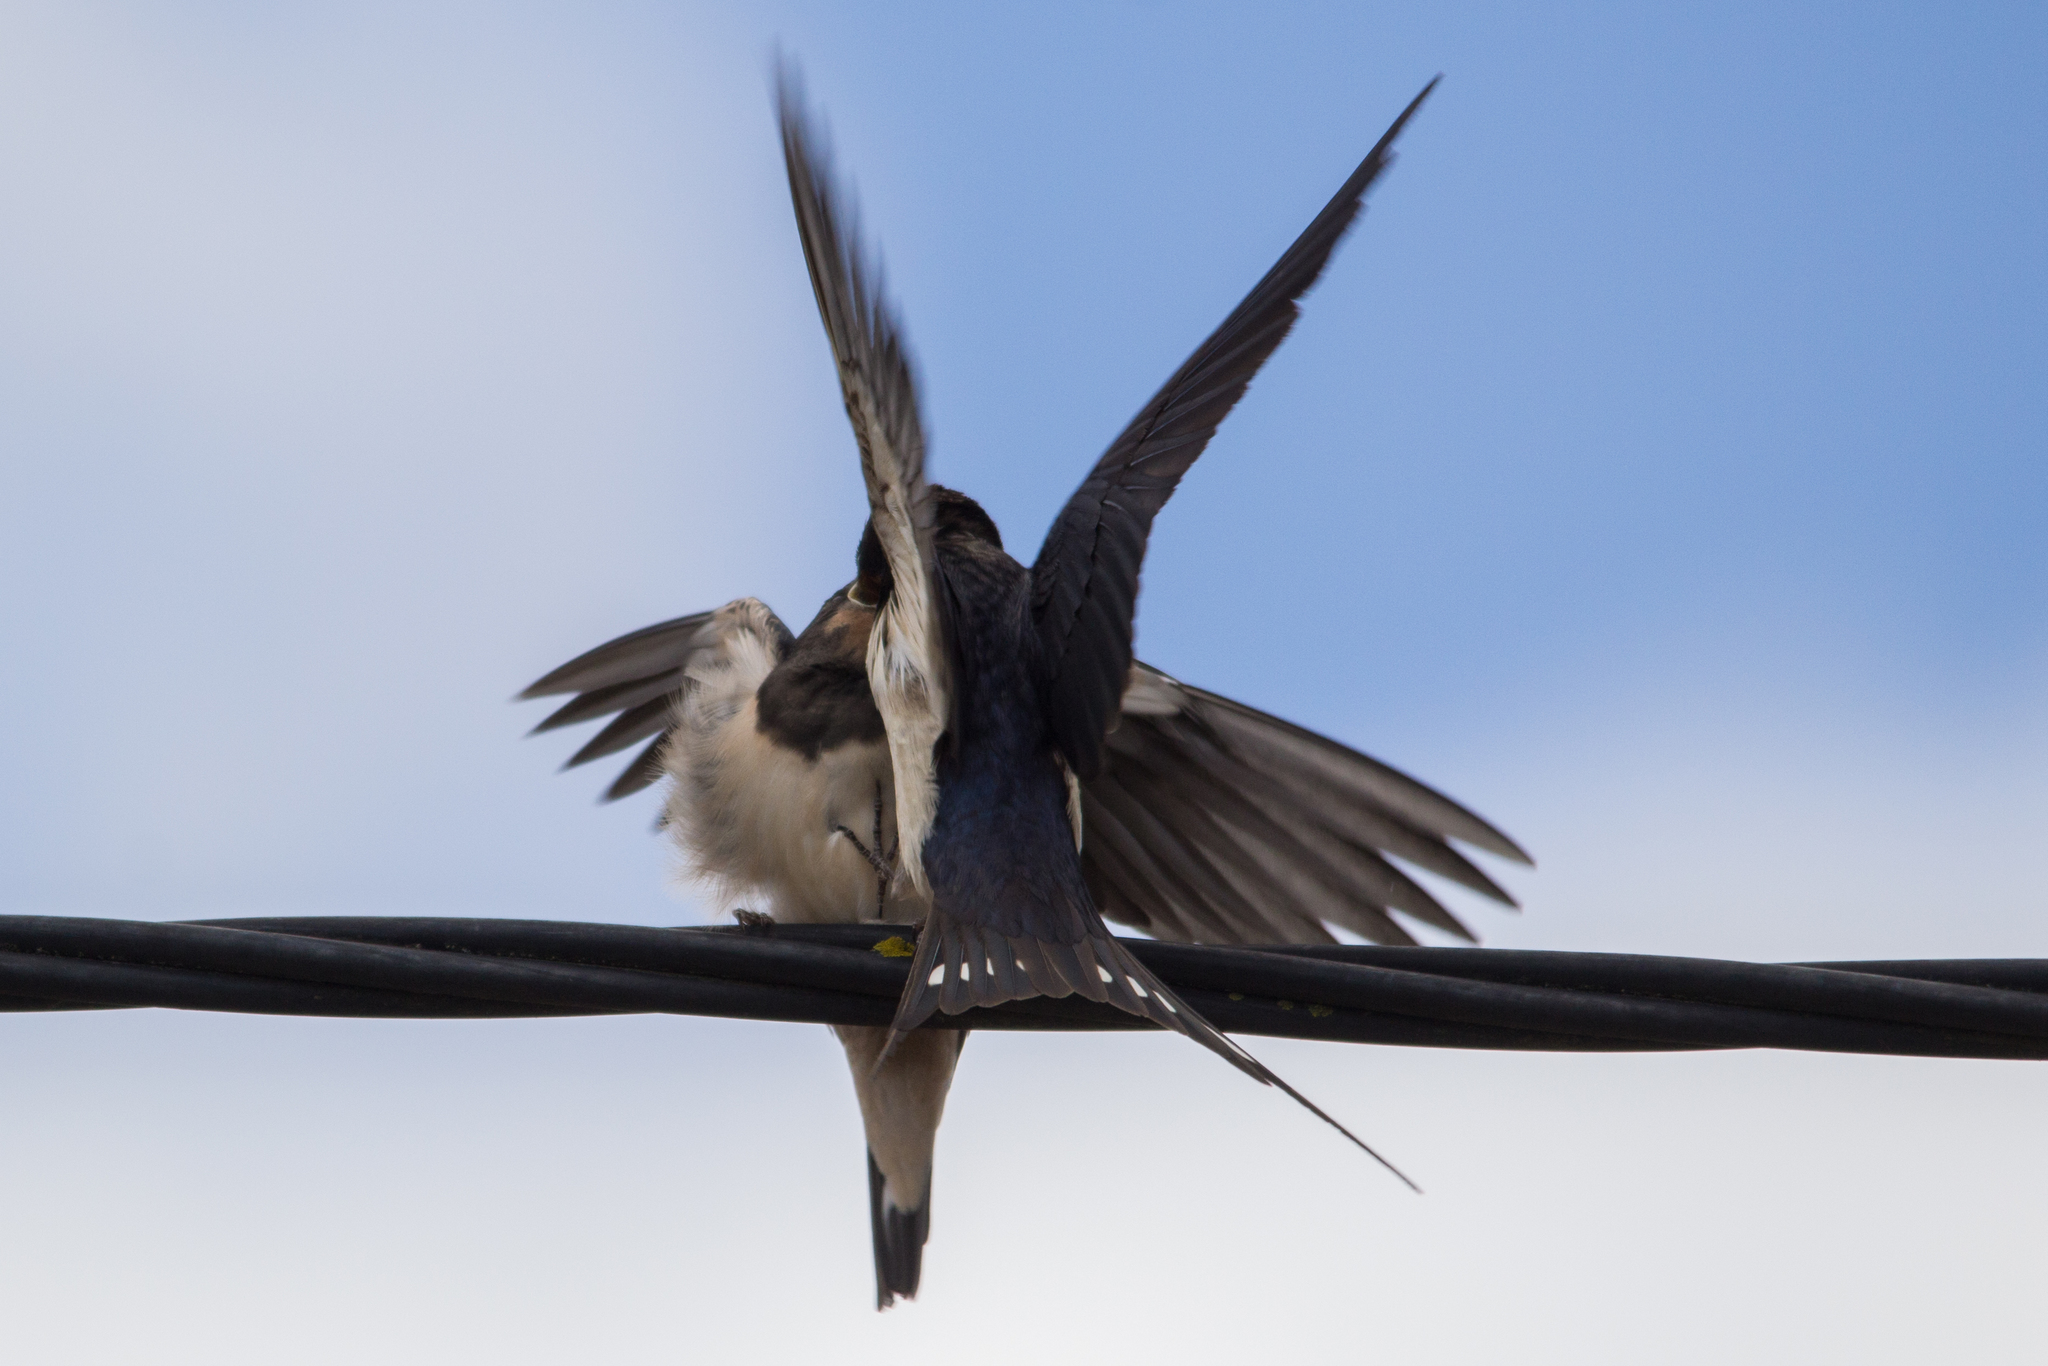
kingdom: Animalia
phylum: Chordata
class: Aves
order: Passeriformes
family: Hirundinidae
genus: Hirundo
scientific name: Hirundo rustica
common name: Barn swallow
